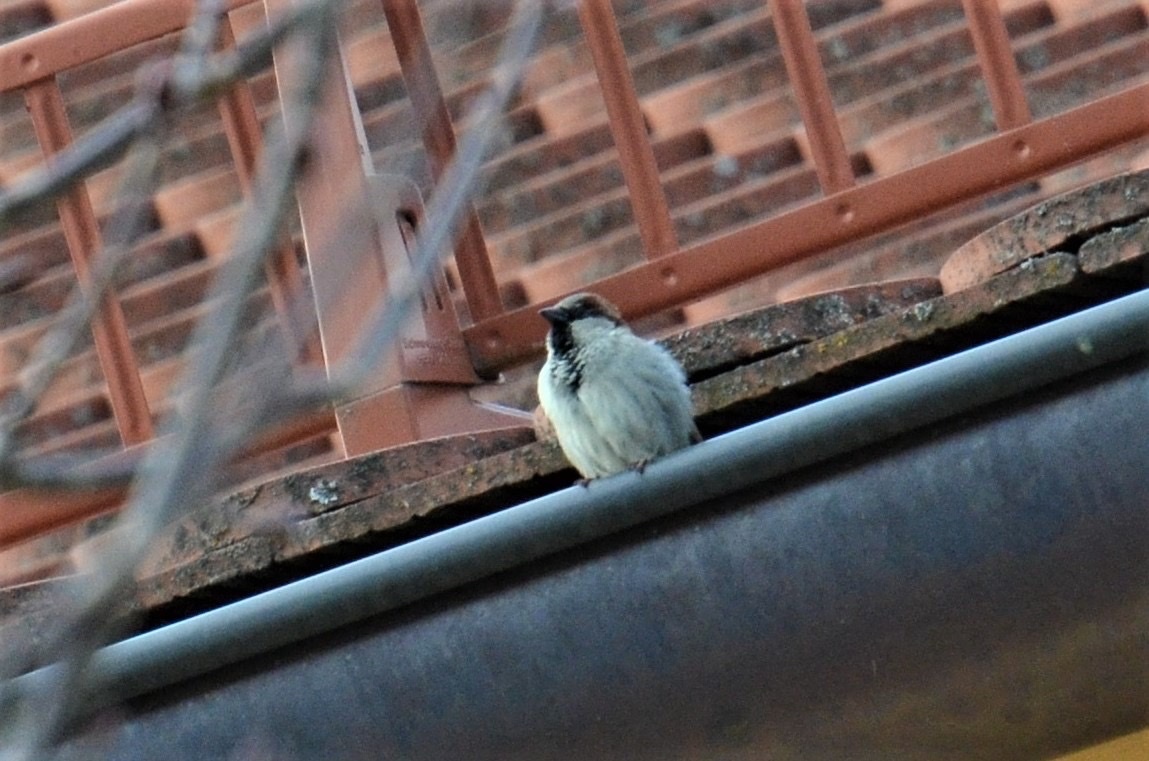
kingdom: Animalia
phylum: Chordata
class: Aves
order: Passeriformes
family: Passeridae
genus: Passer
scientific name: Passer domesticus
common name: House sparrow
